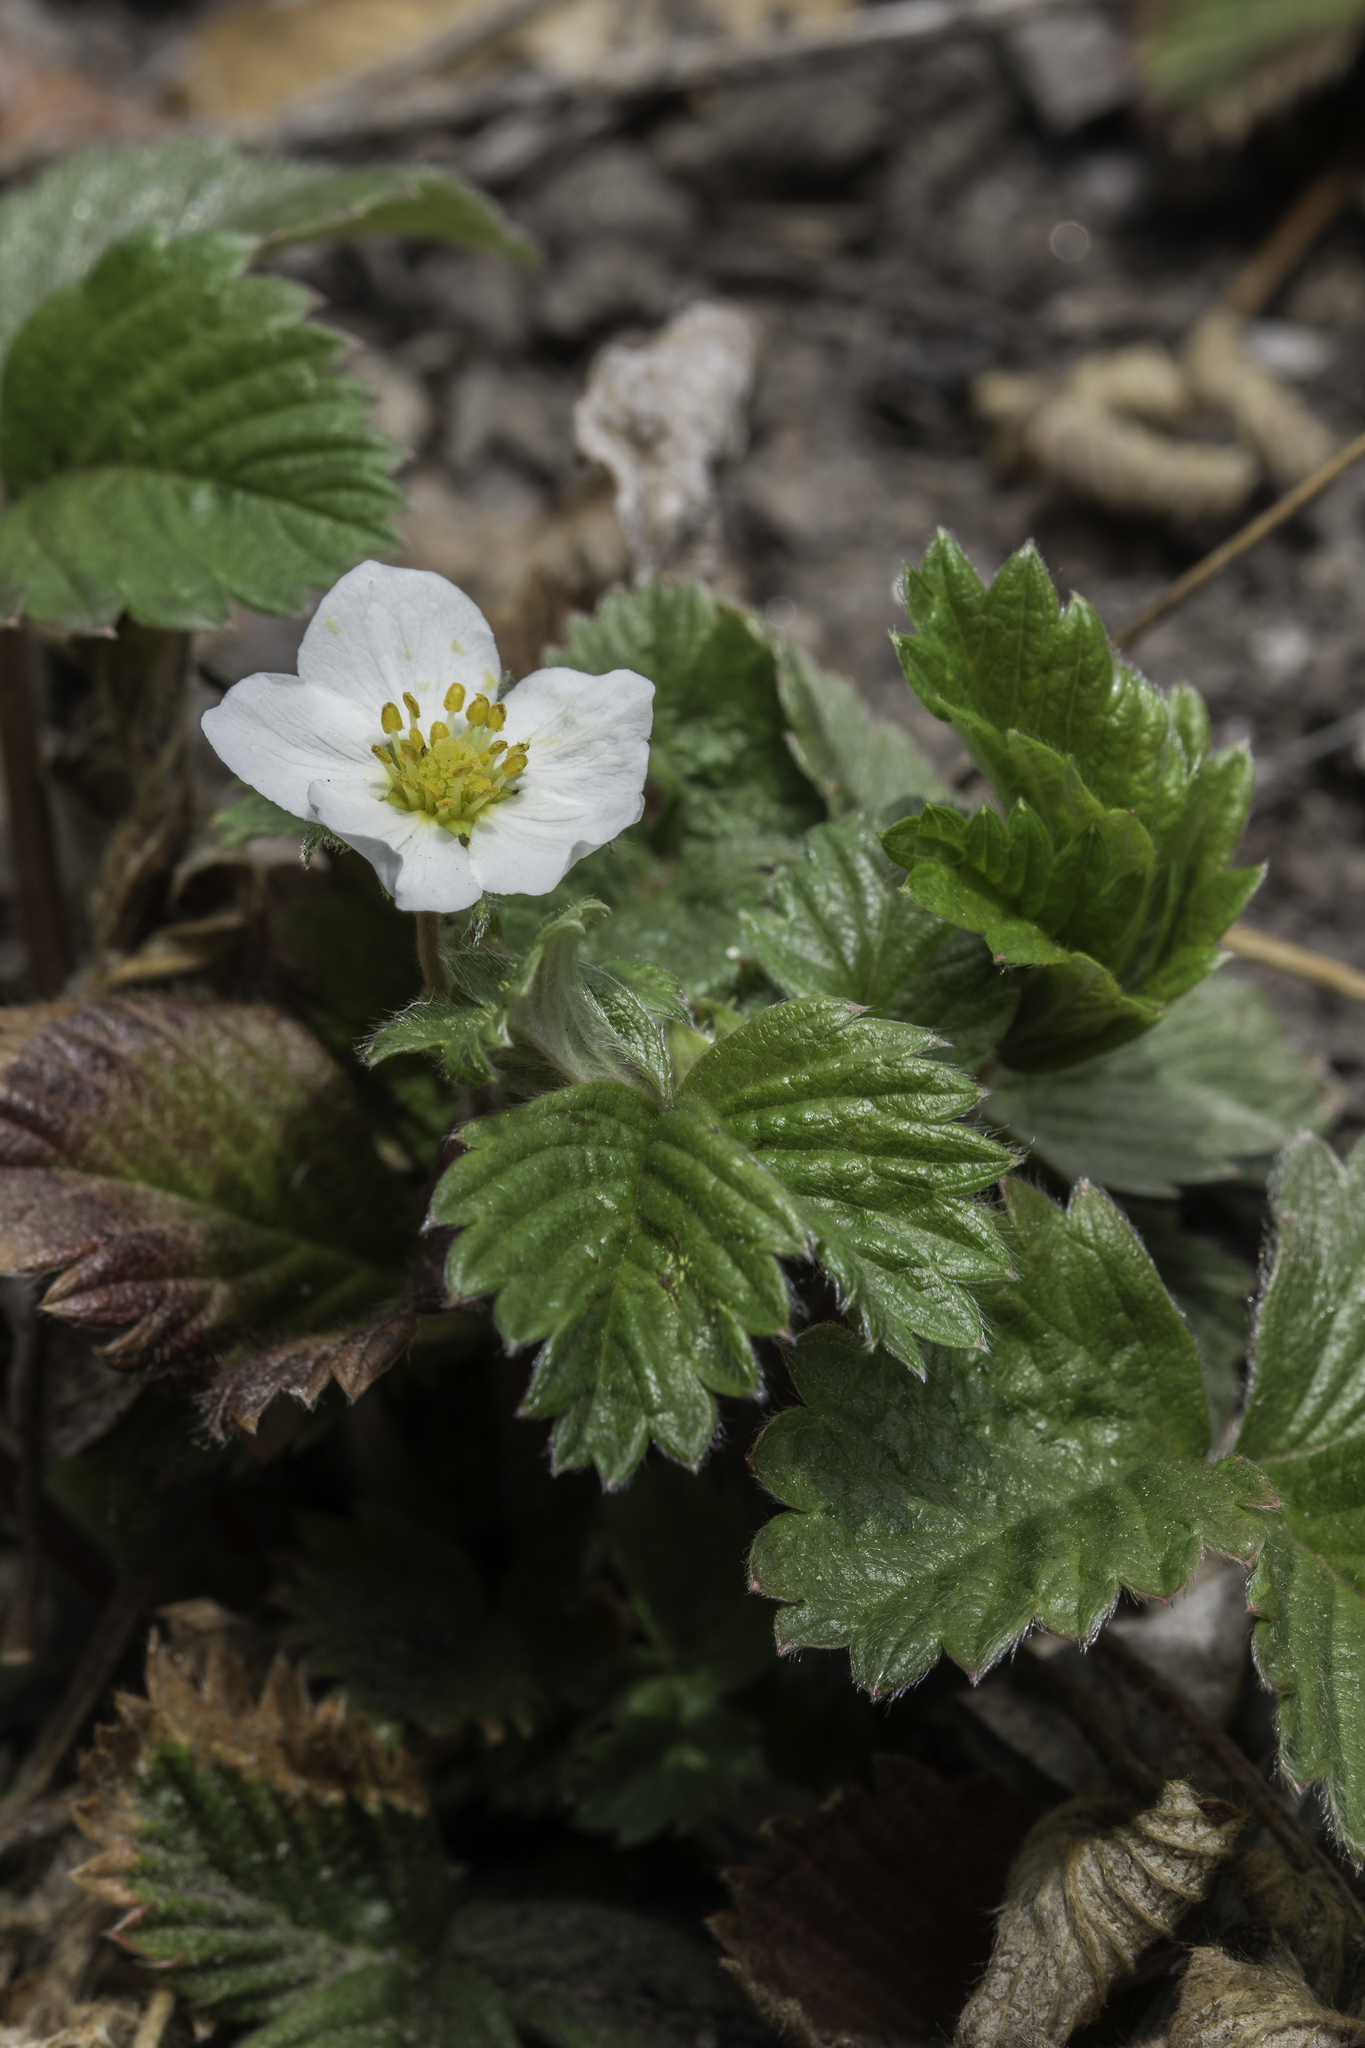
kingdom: Plantae
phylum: Tracheophyta
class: Magnoliopsida
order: Rosales
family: Rosaceae
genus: Fragaria
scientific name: Fragaria vesca
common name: Wild strawberry
